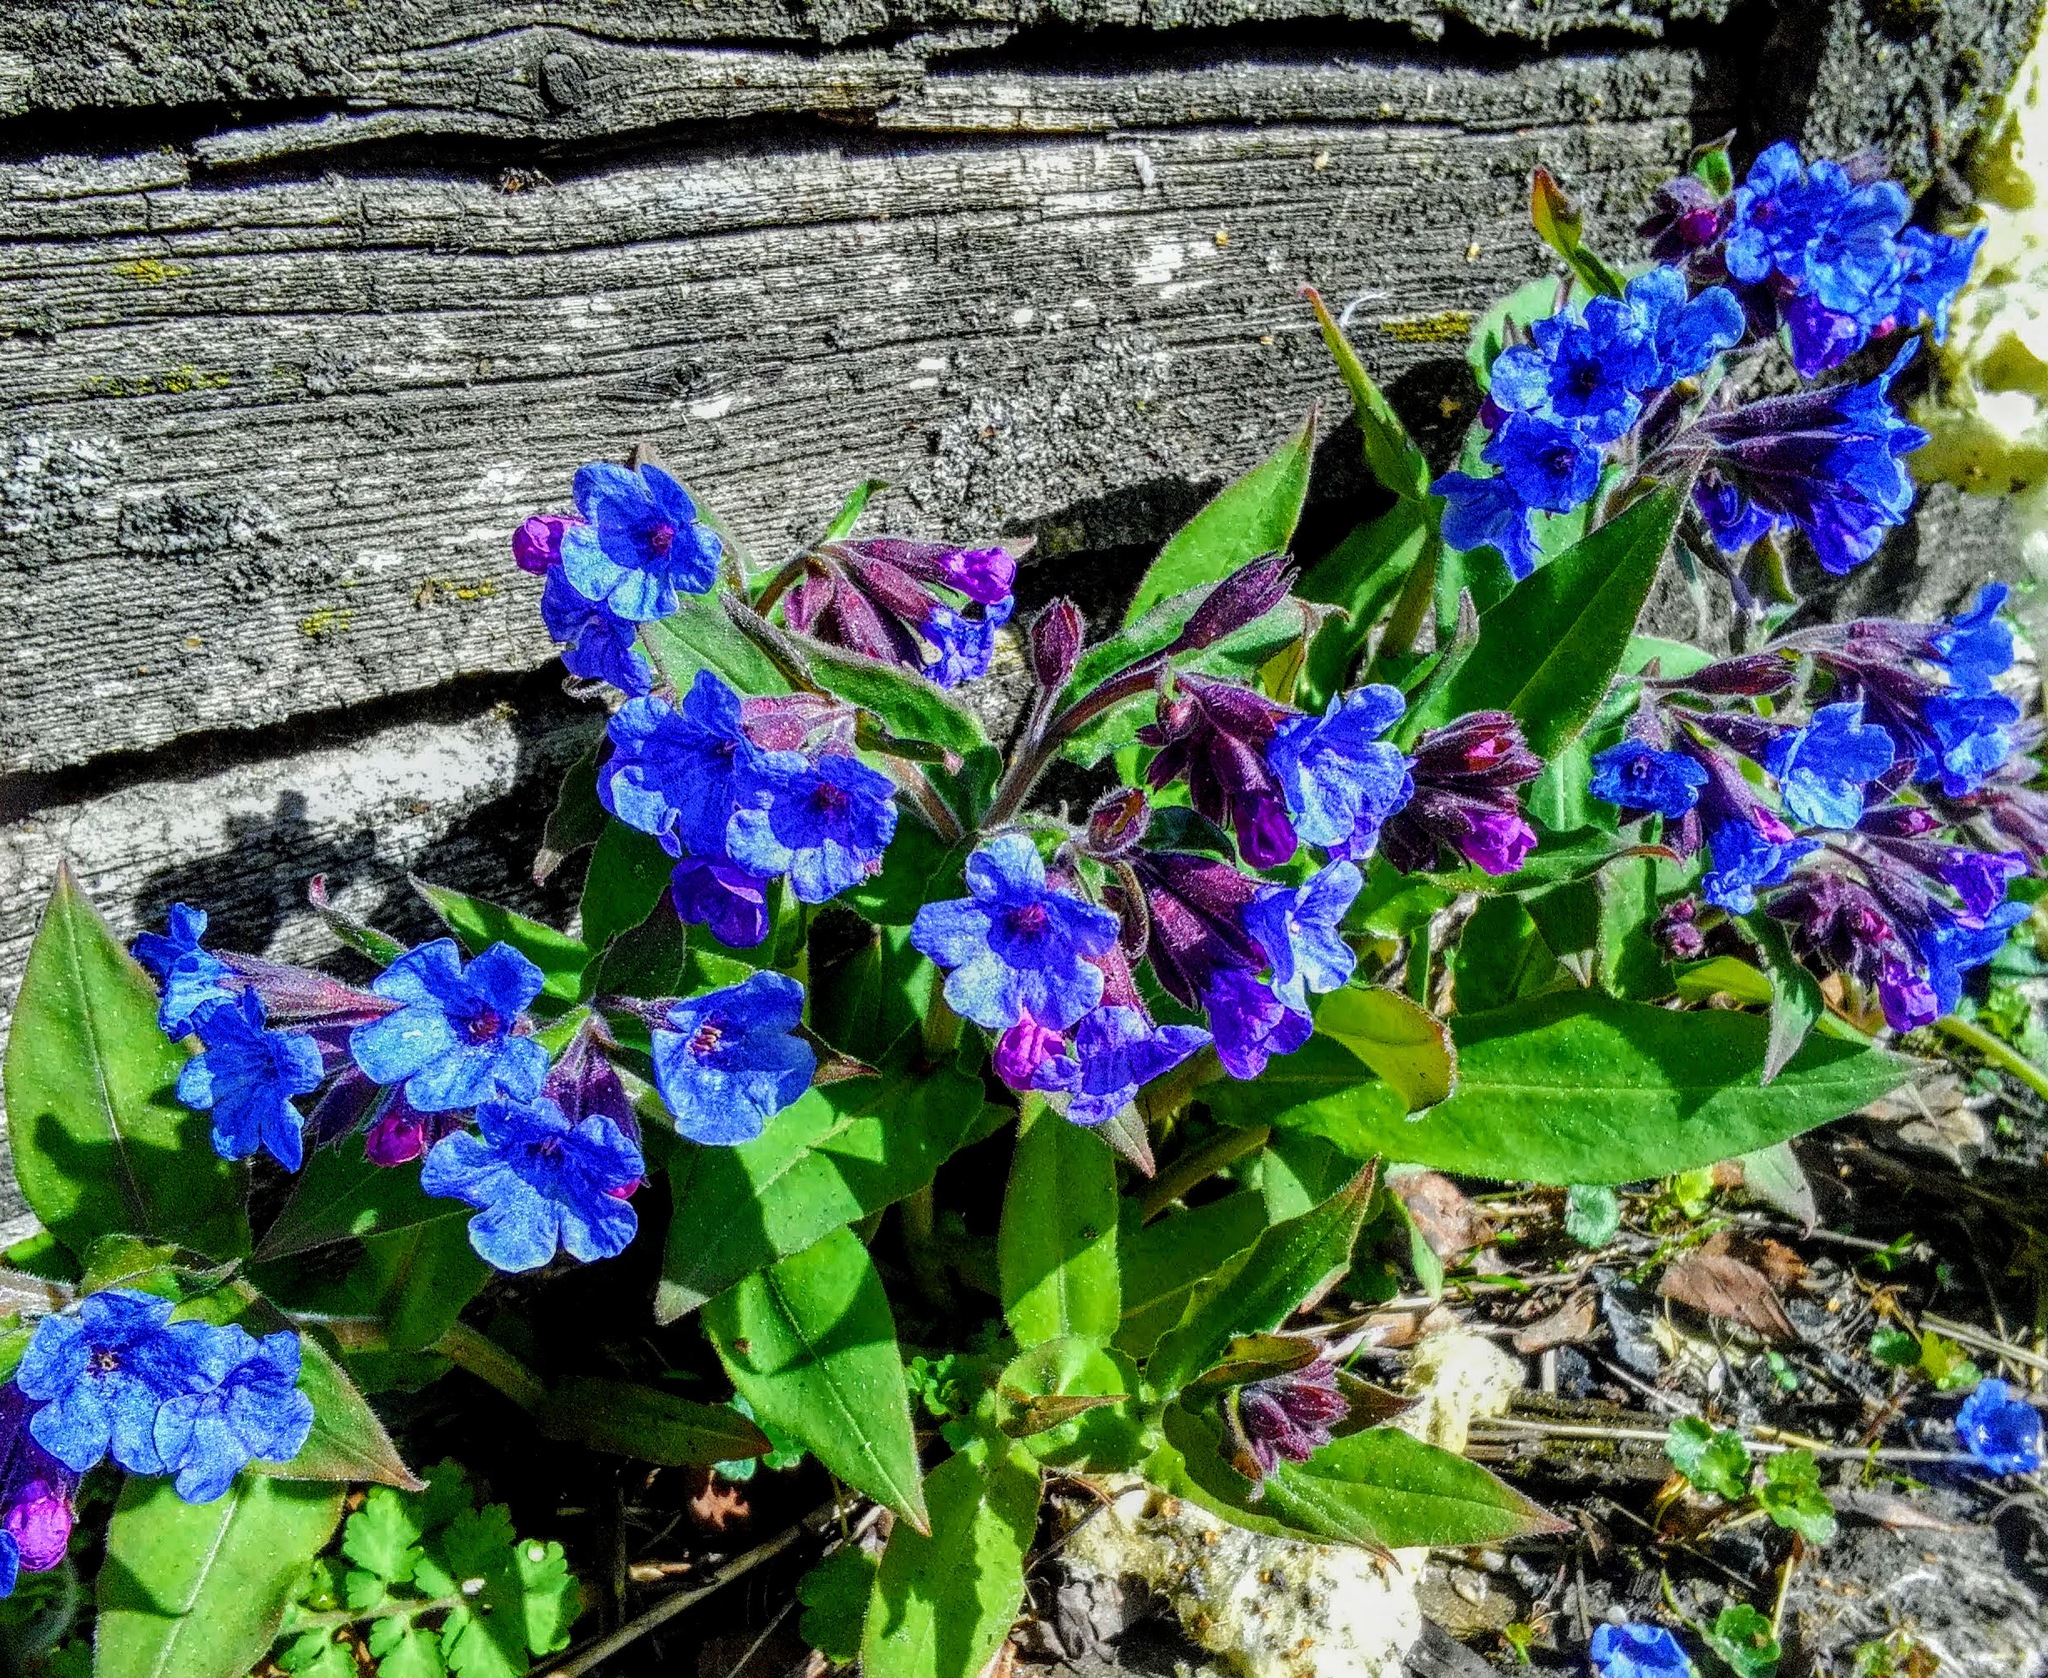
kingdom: Plantae
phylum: Tracheophyta
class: Magnoliopsida
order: Boraginales
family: Boraginaceae
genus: Pulmonaria
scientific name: Pulmonaria mollis
